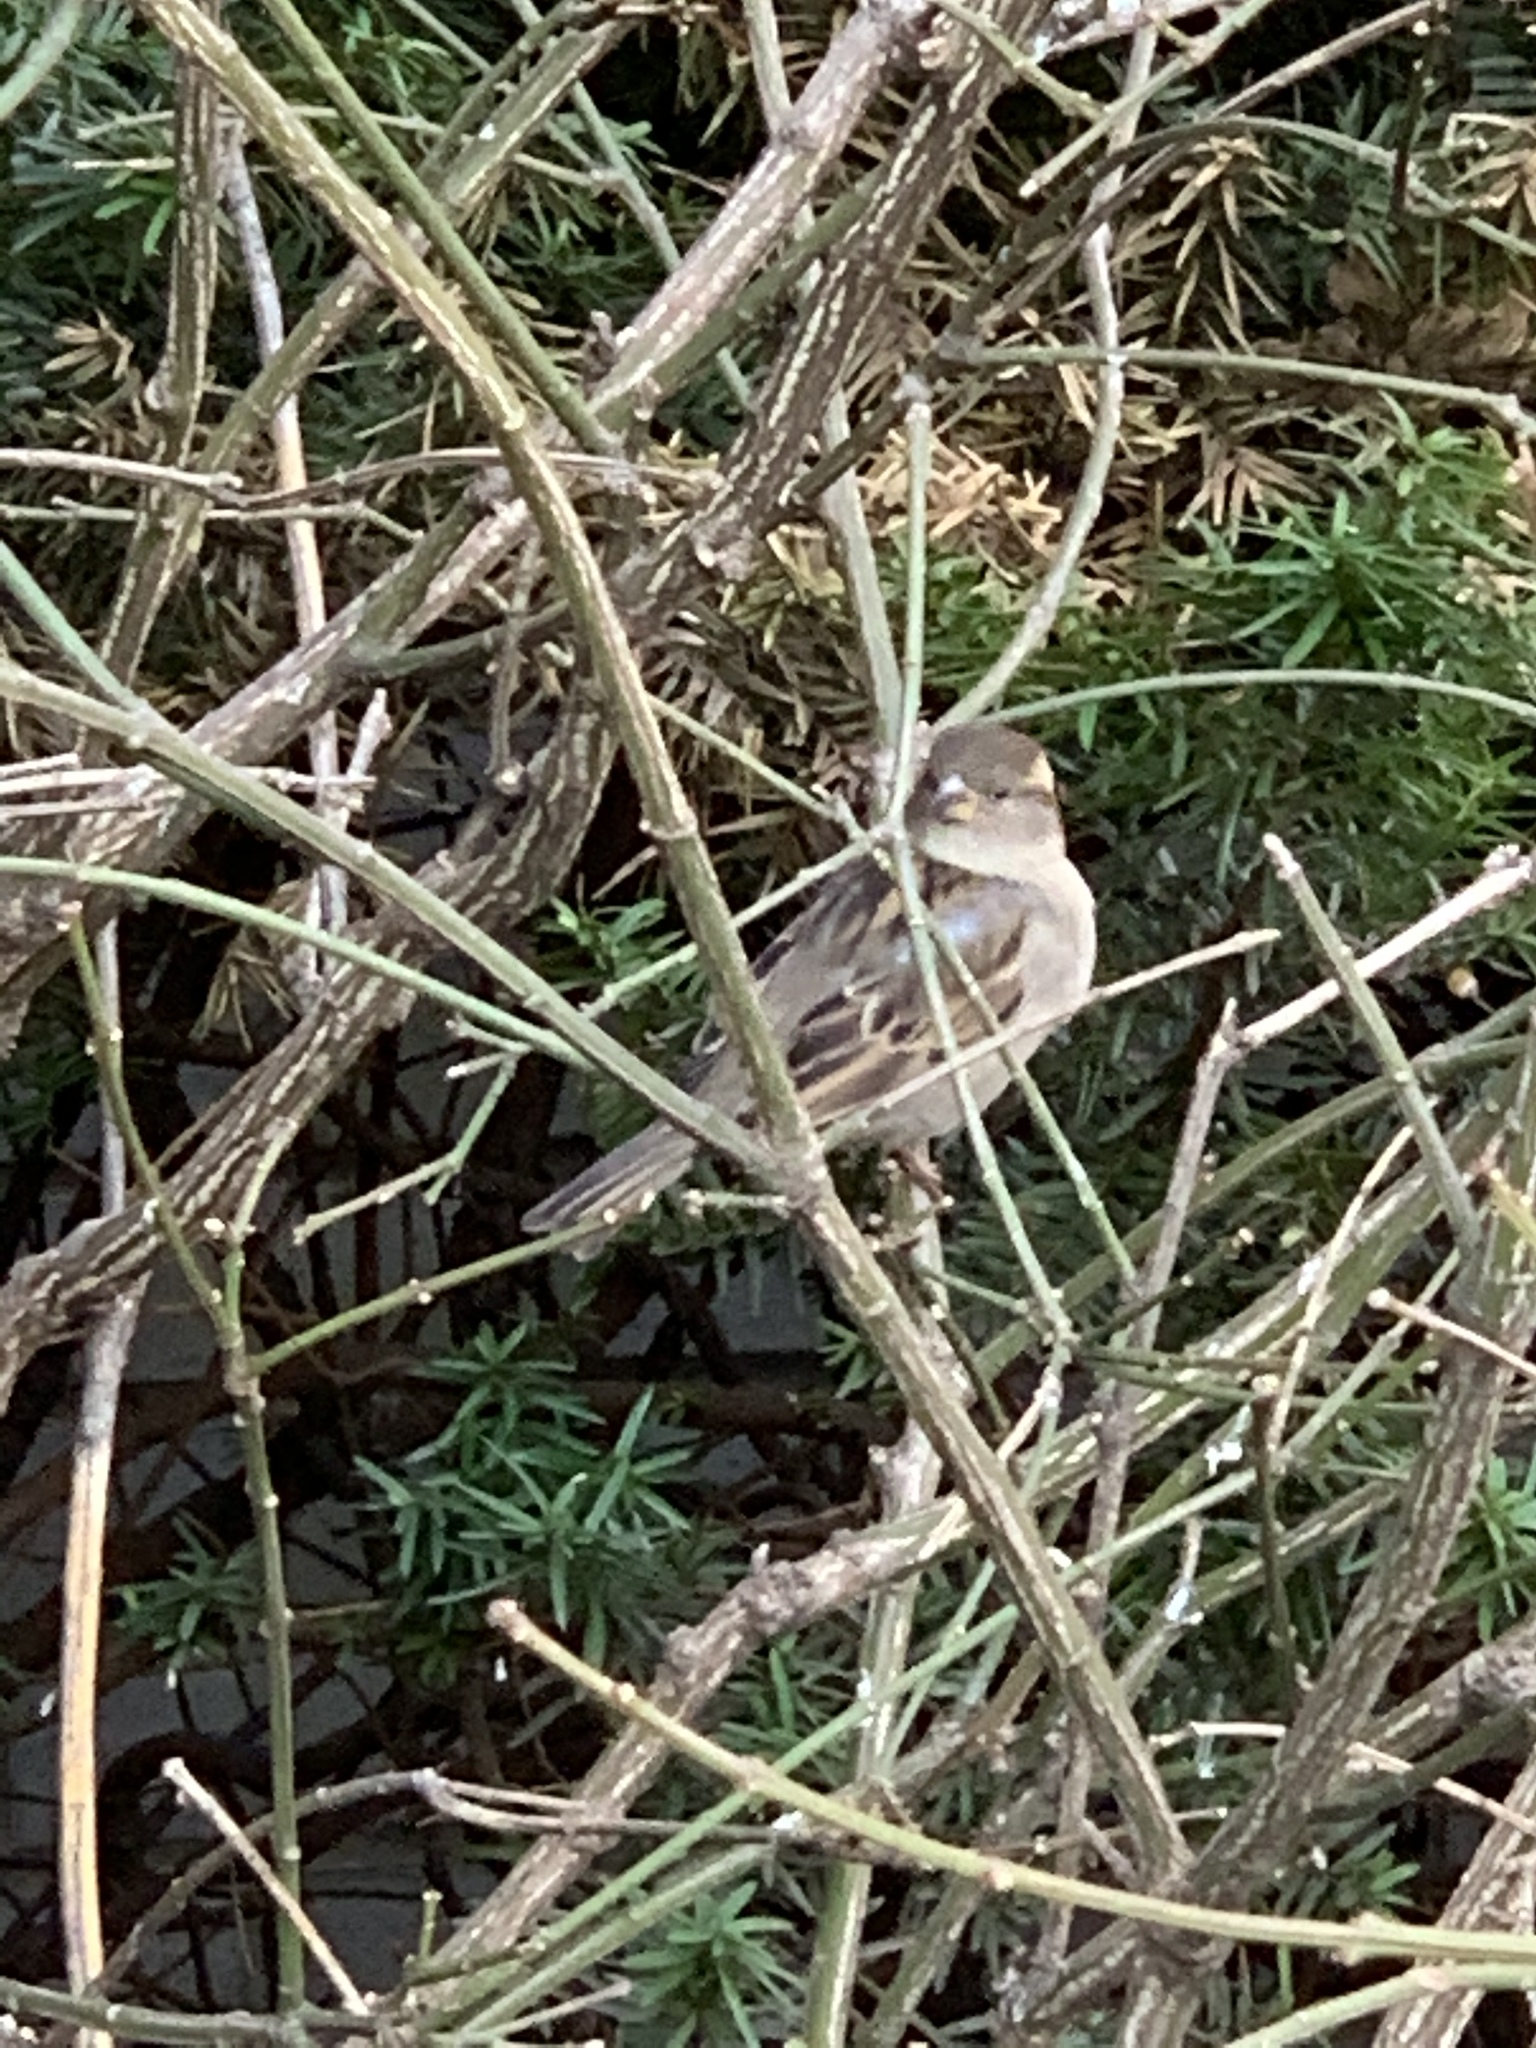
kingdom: Animalia
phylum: Chordata
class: Aves
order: Passeriformes
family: Passeridae
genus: Passer
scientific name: Passer domesticus
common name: House sparrow
